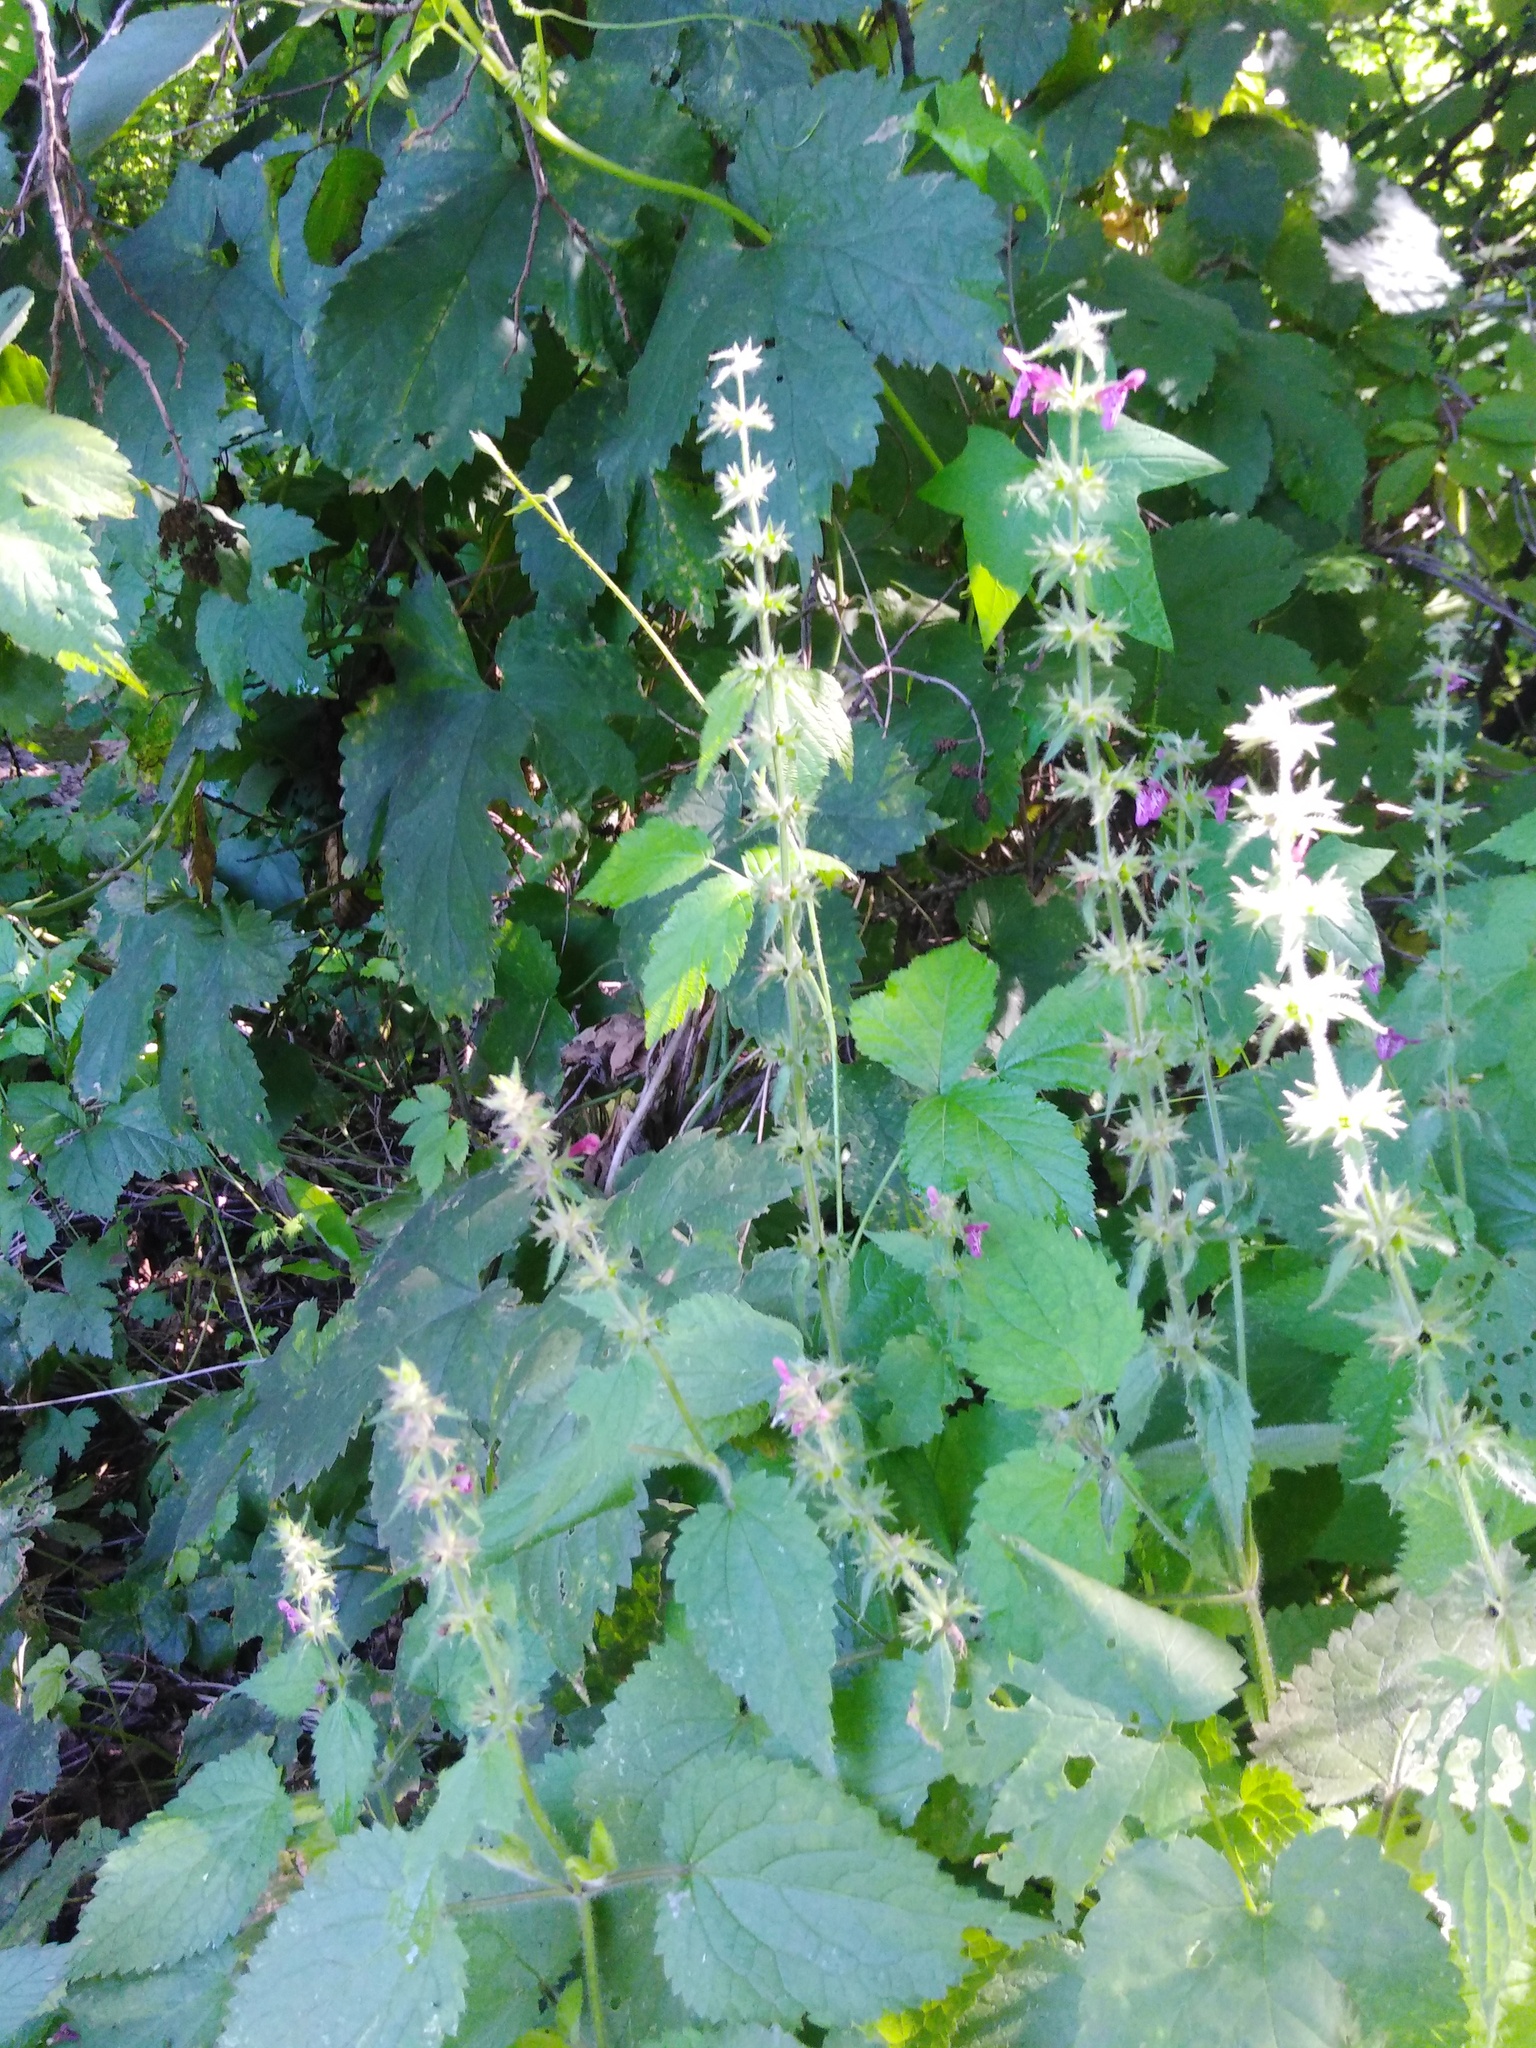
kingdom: Plantae
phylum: Tracheophyta
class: Magnoliopsida
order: Lamiales
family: Lamiaceae
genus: Stachys
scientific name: Stachys sylvatica
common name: Hedge woundwort
